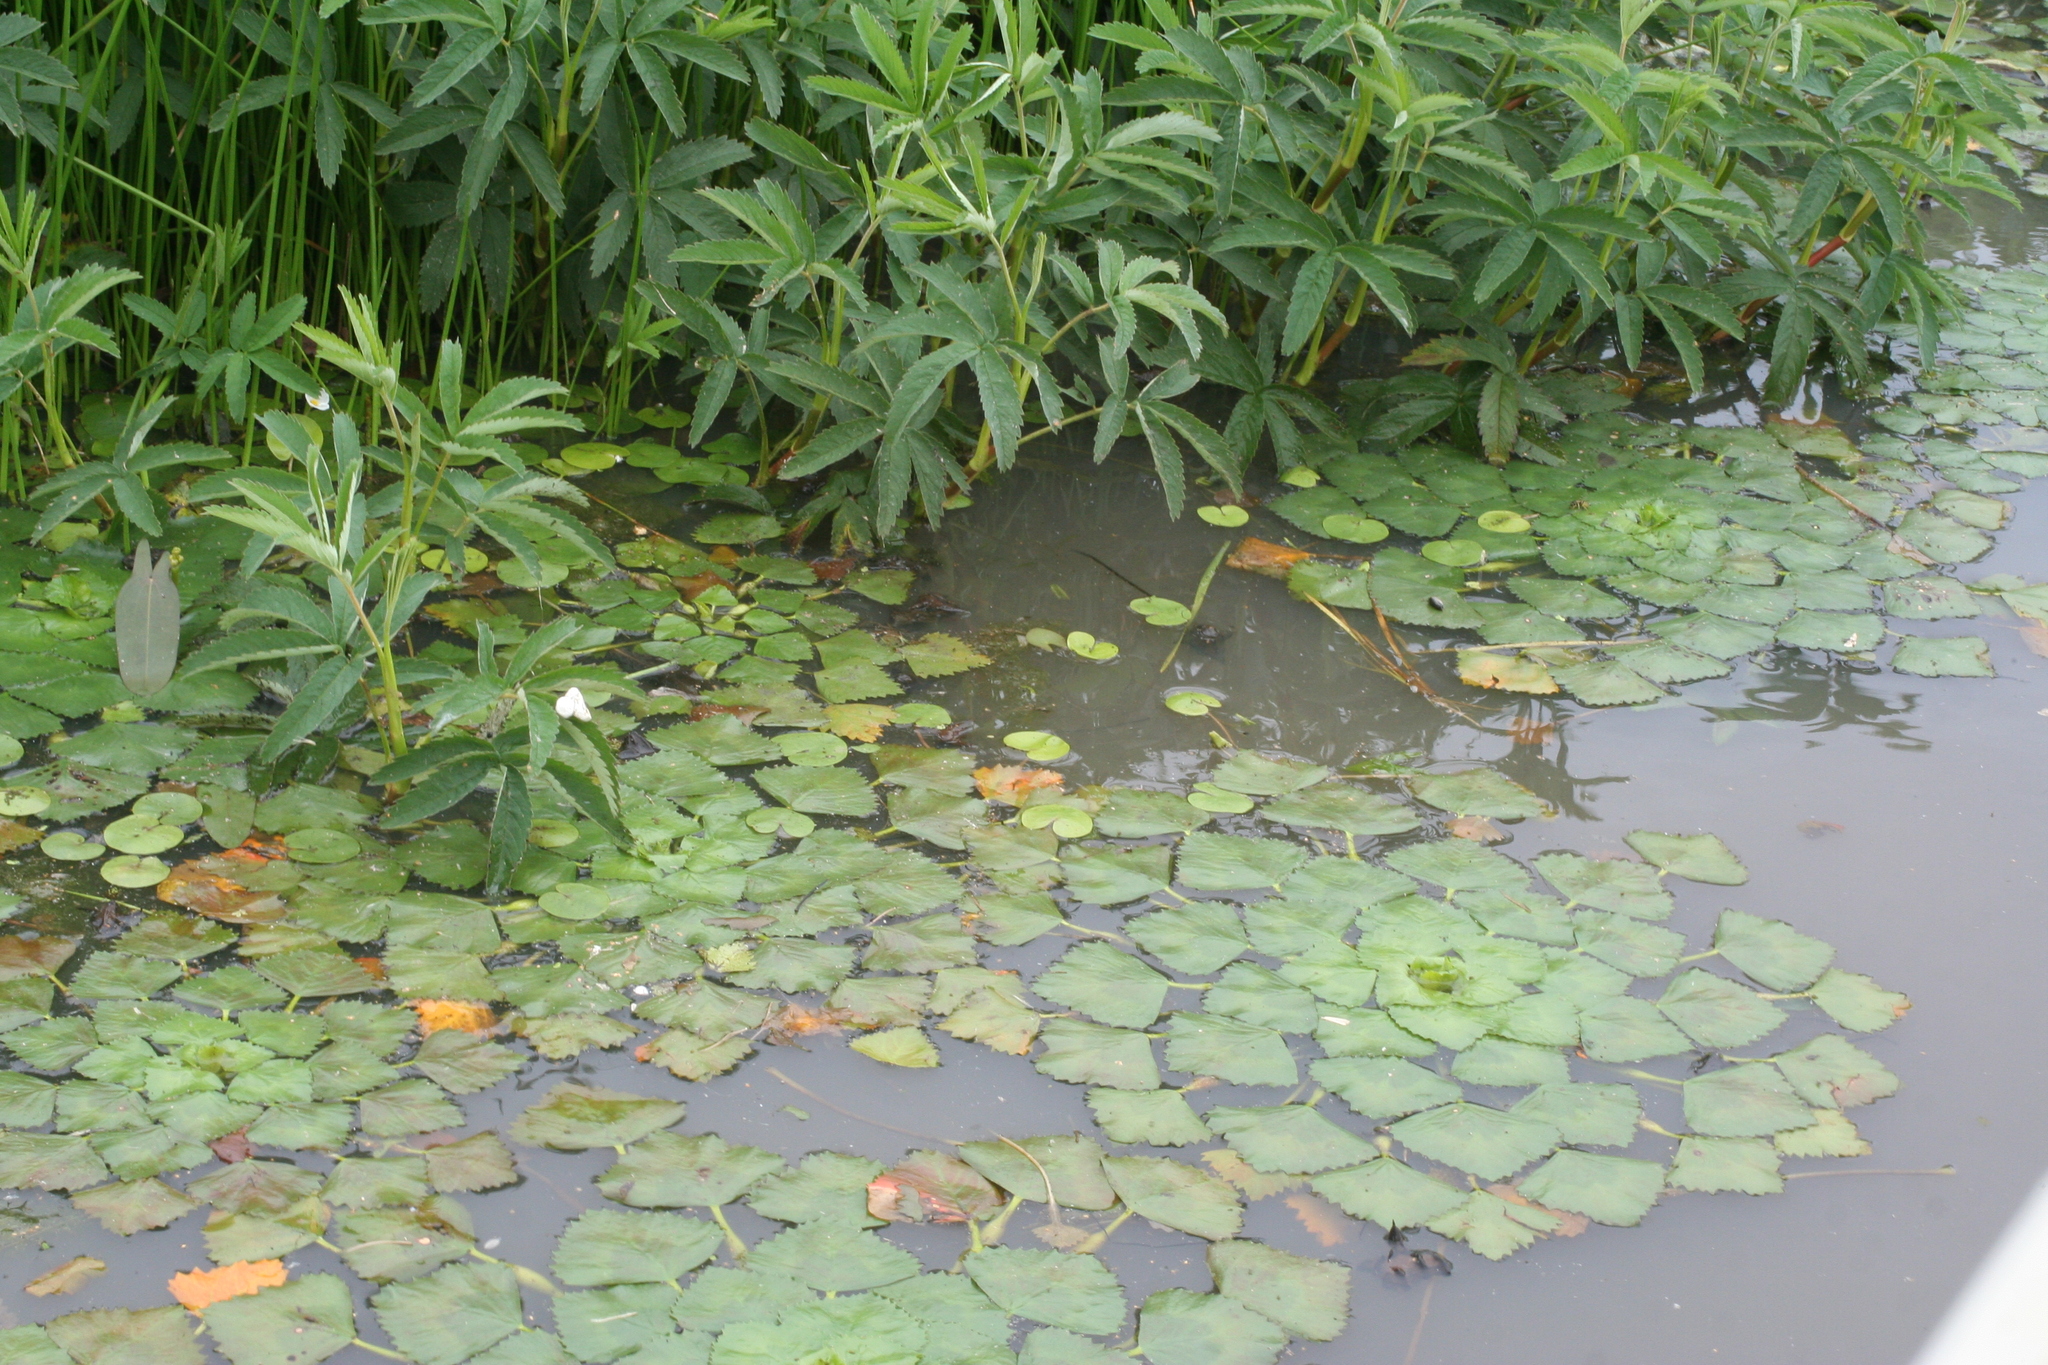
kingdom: Plantae
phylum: Tracheophyta
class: Magnoliopsida
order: Rosales
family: Rosaceae
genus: Comarum
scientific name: Comarum palustre
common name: Marsh cinquefoil
